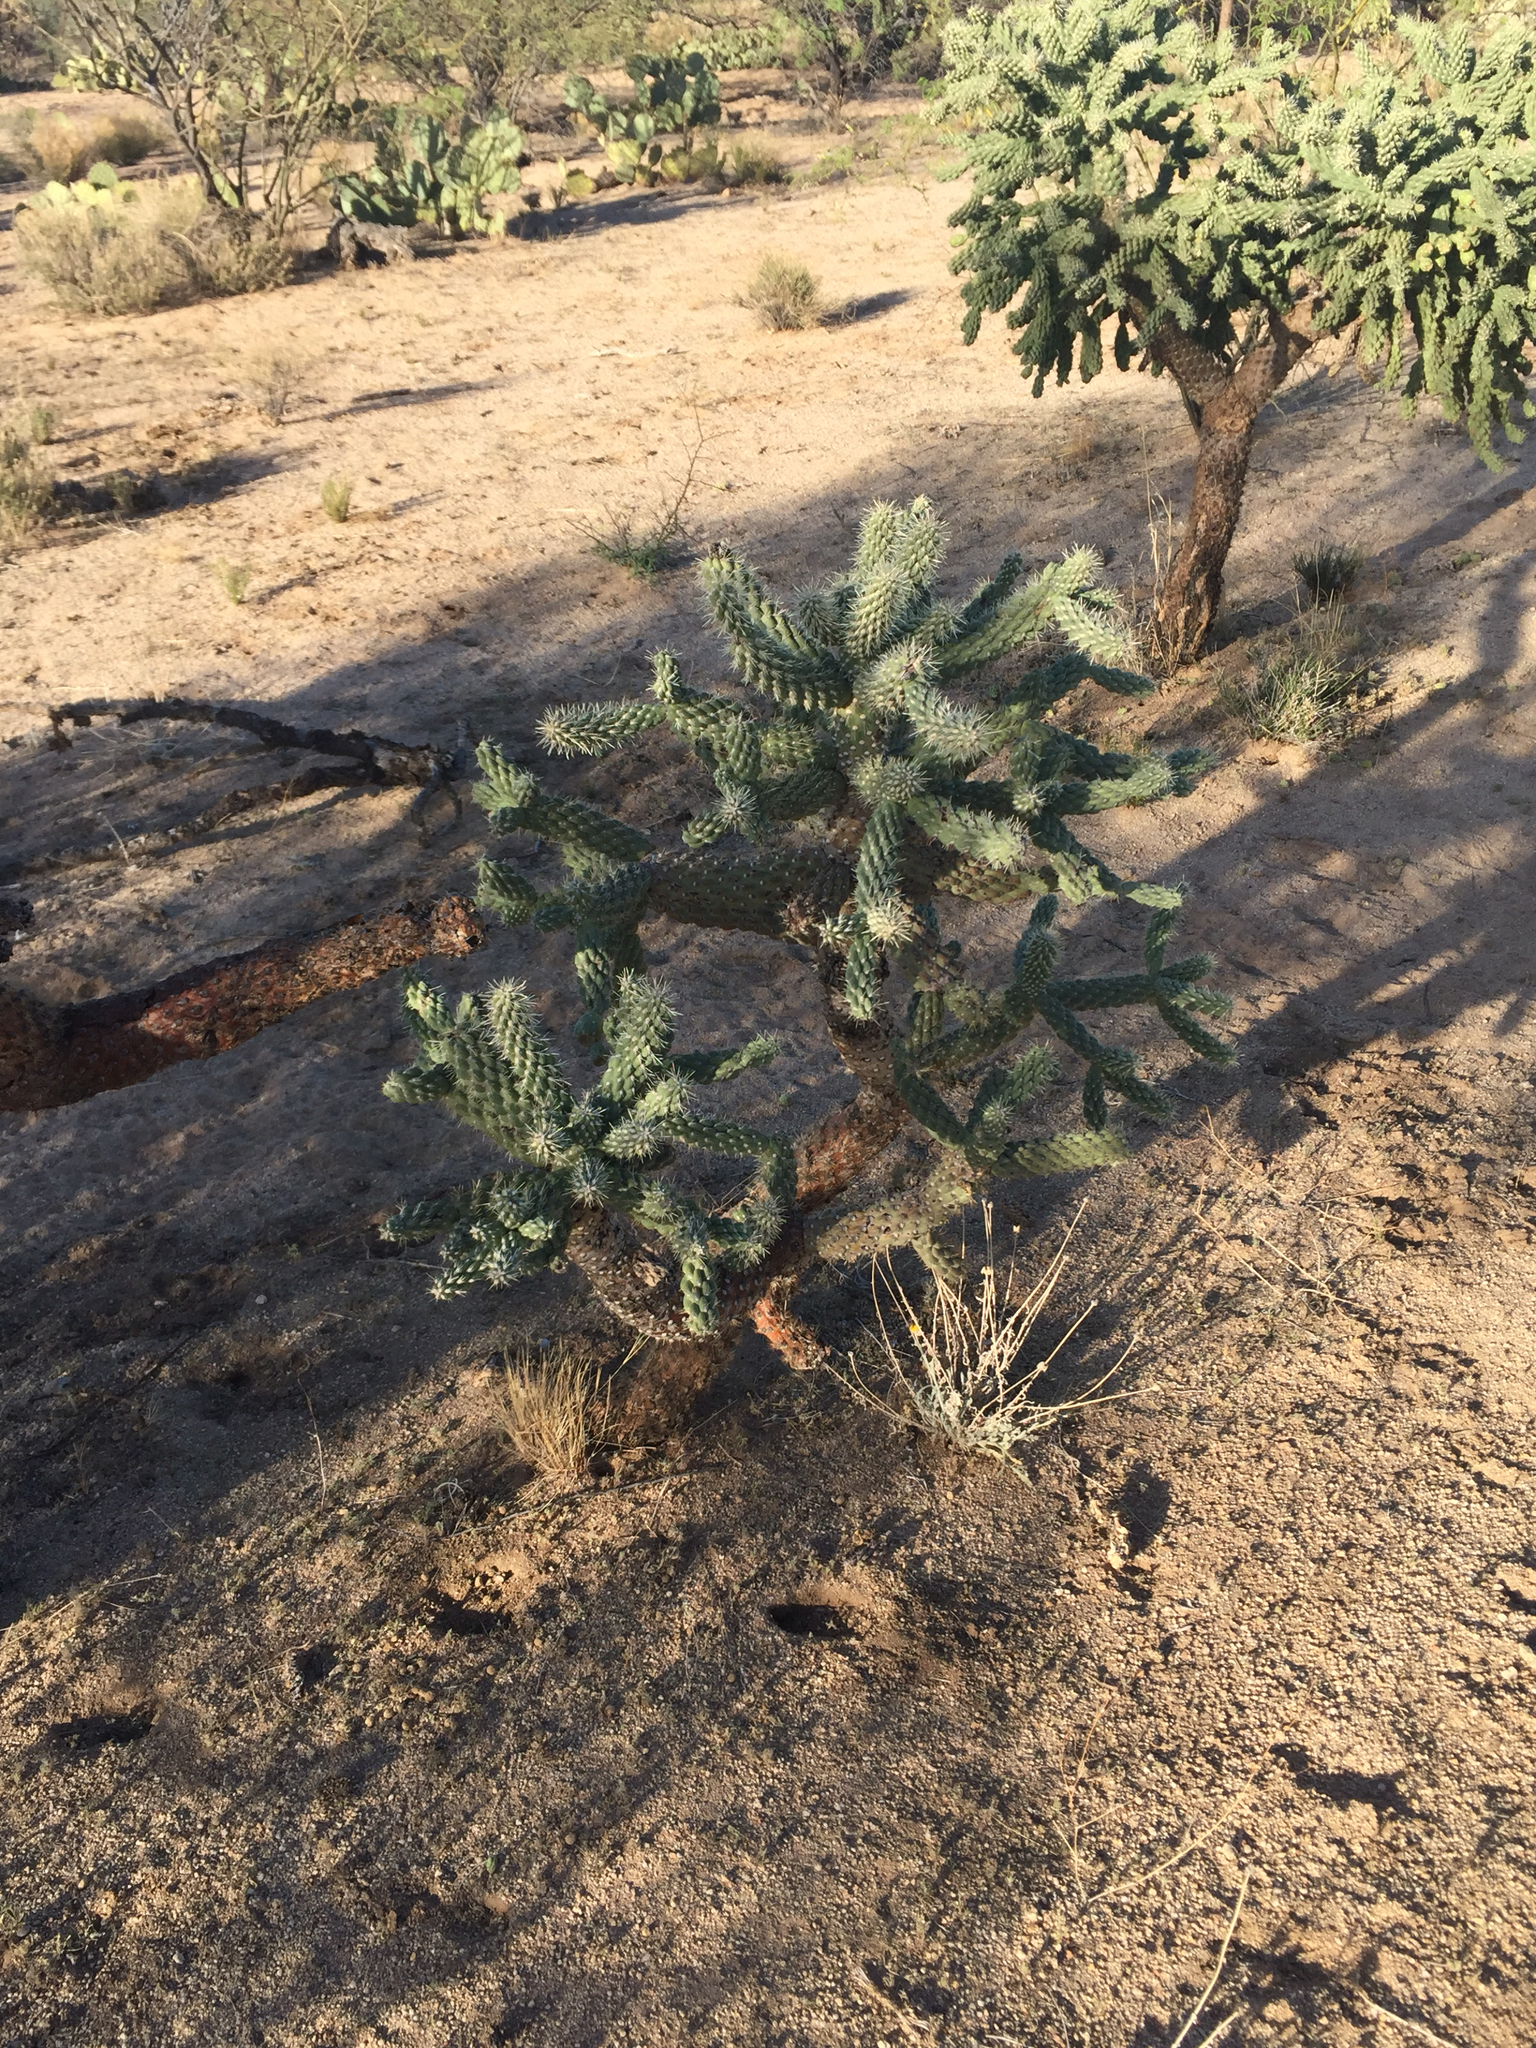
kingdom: Plantae
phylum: Tracheophyta
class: Magnoliopsida
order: Caryophyllales
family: Cactaceae
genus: Cylindropuntia
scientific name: Cylindropuntia fulgida
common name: Jumping cholla
